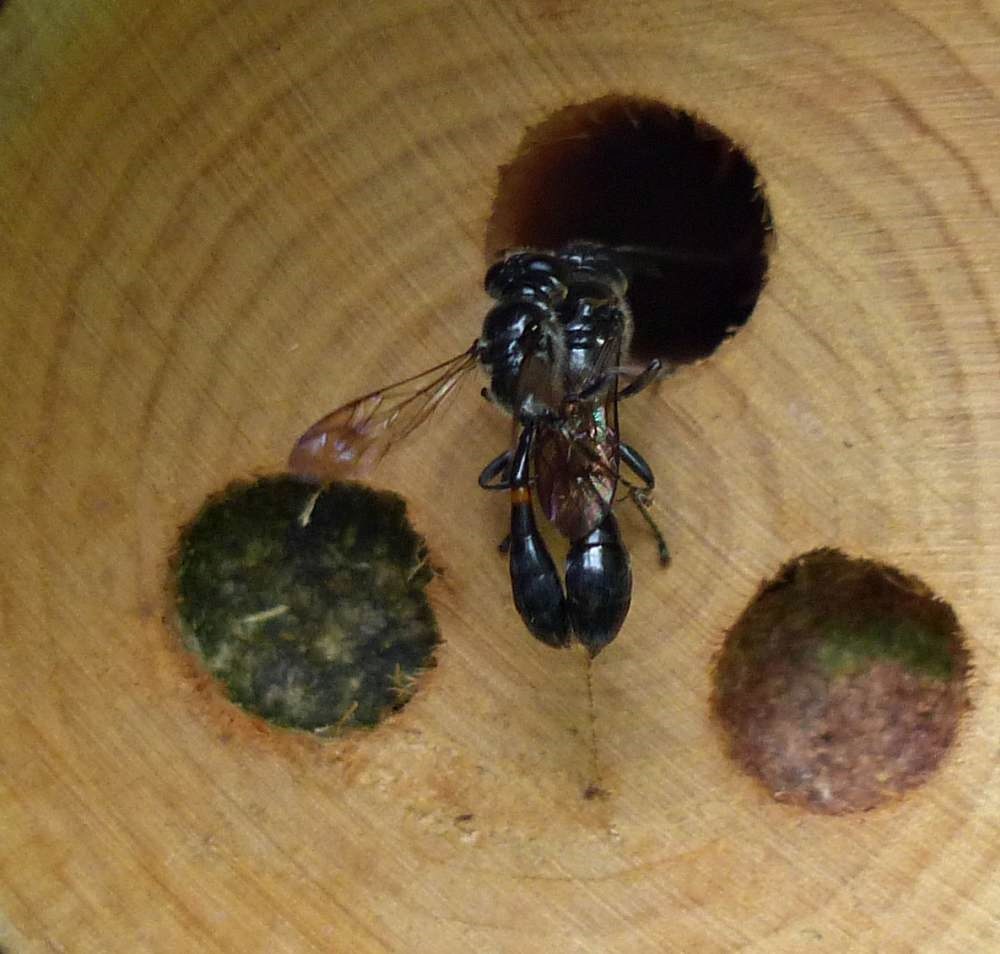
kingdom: Animalia
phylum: Arthropoda
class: Insecta
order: Hymenoptera
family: Crabronidae
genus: Trypoxylon
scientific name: Trypoxylon collinum
